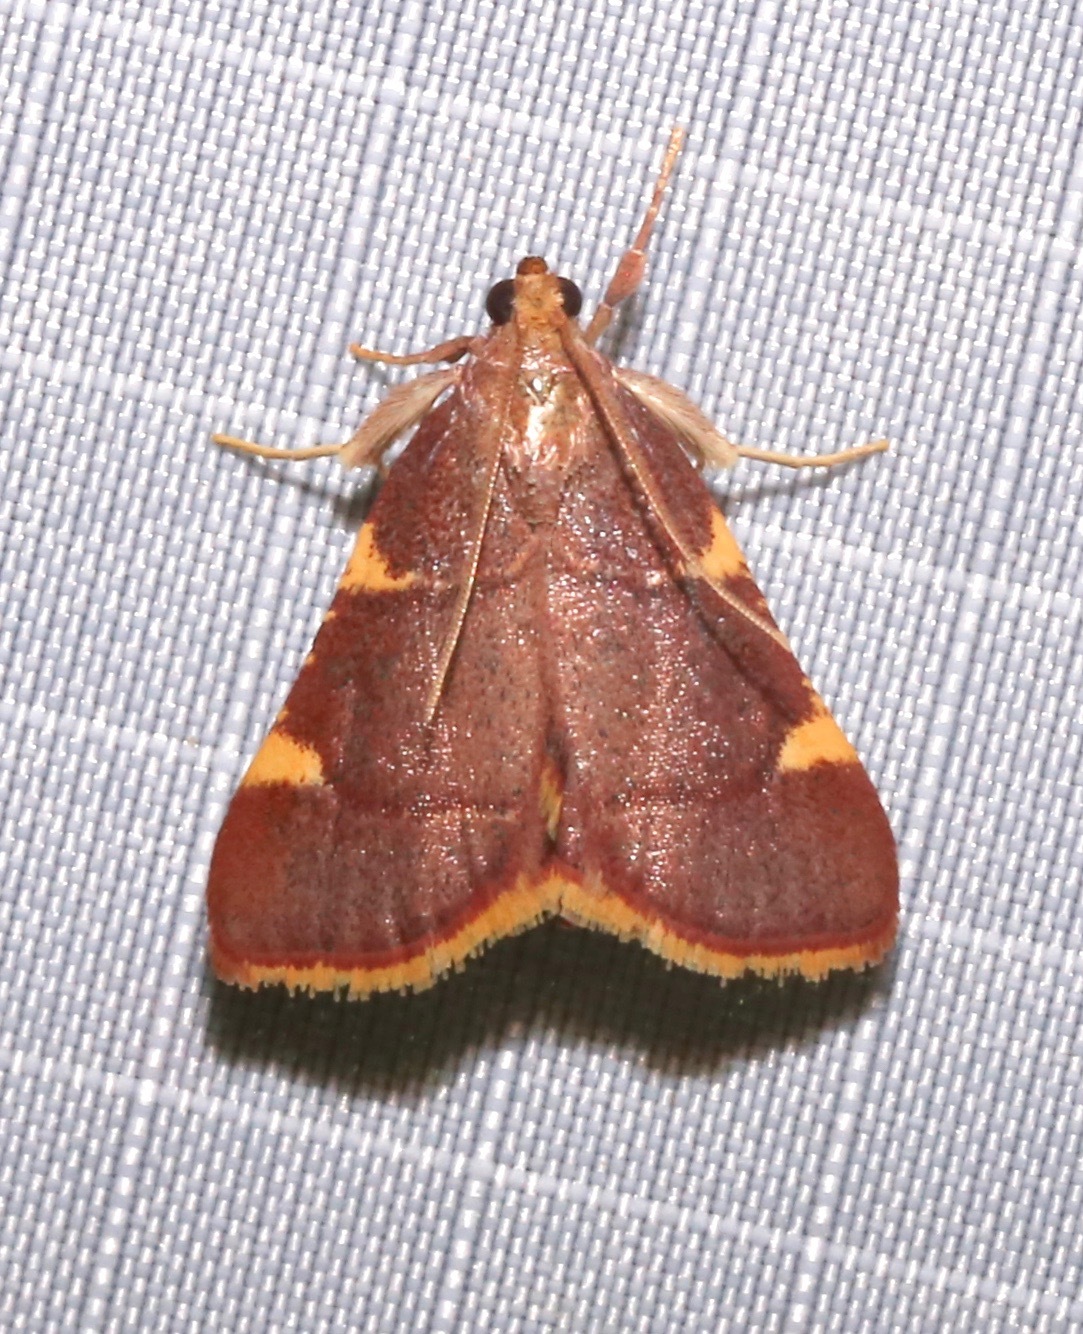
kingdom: Animalia
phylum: Arthropoda
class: Insecta
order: Lepidoptera
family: Pyralidae
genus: Hypsopygia
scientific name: Hypsopygia olinalis
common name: Yellow-fringed dolichomia moth
